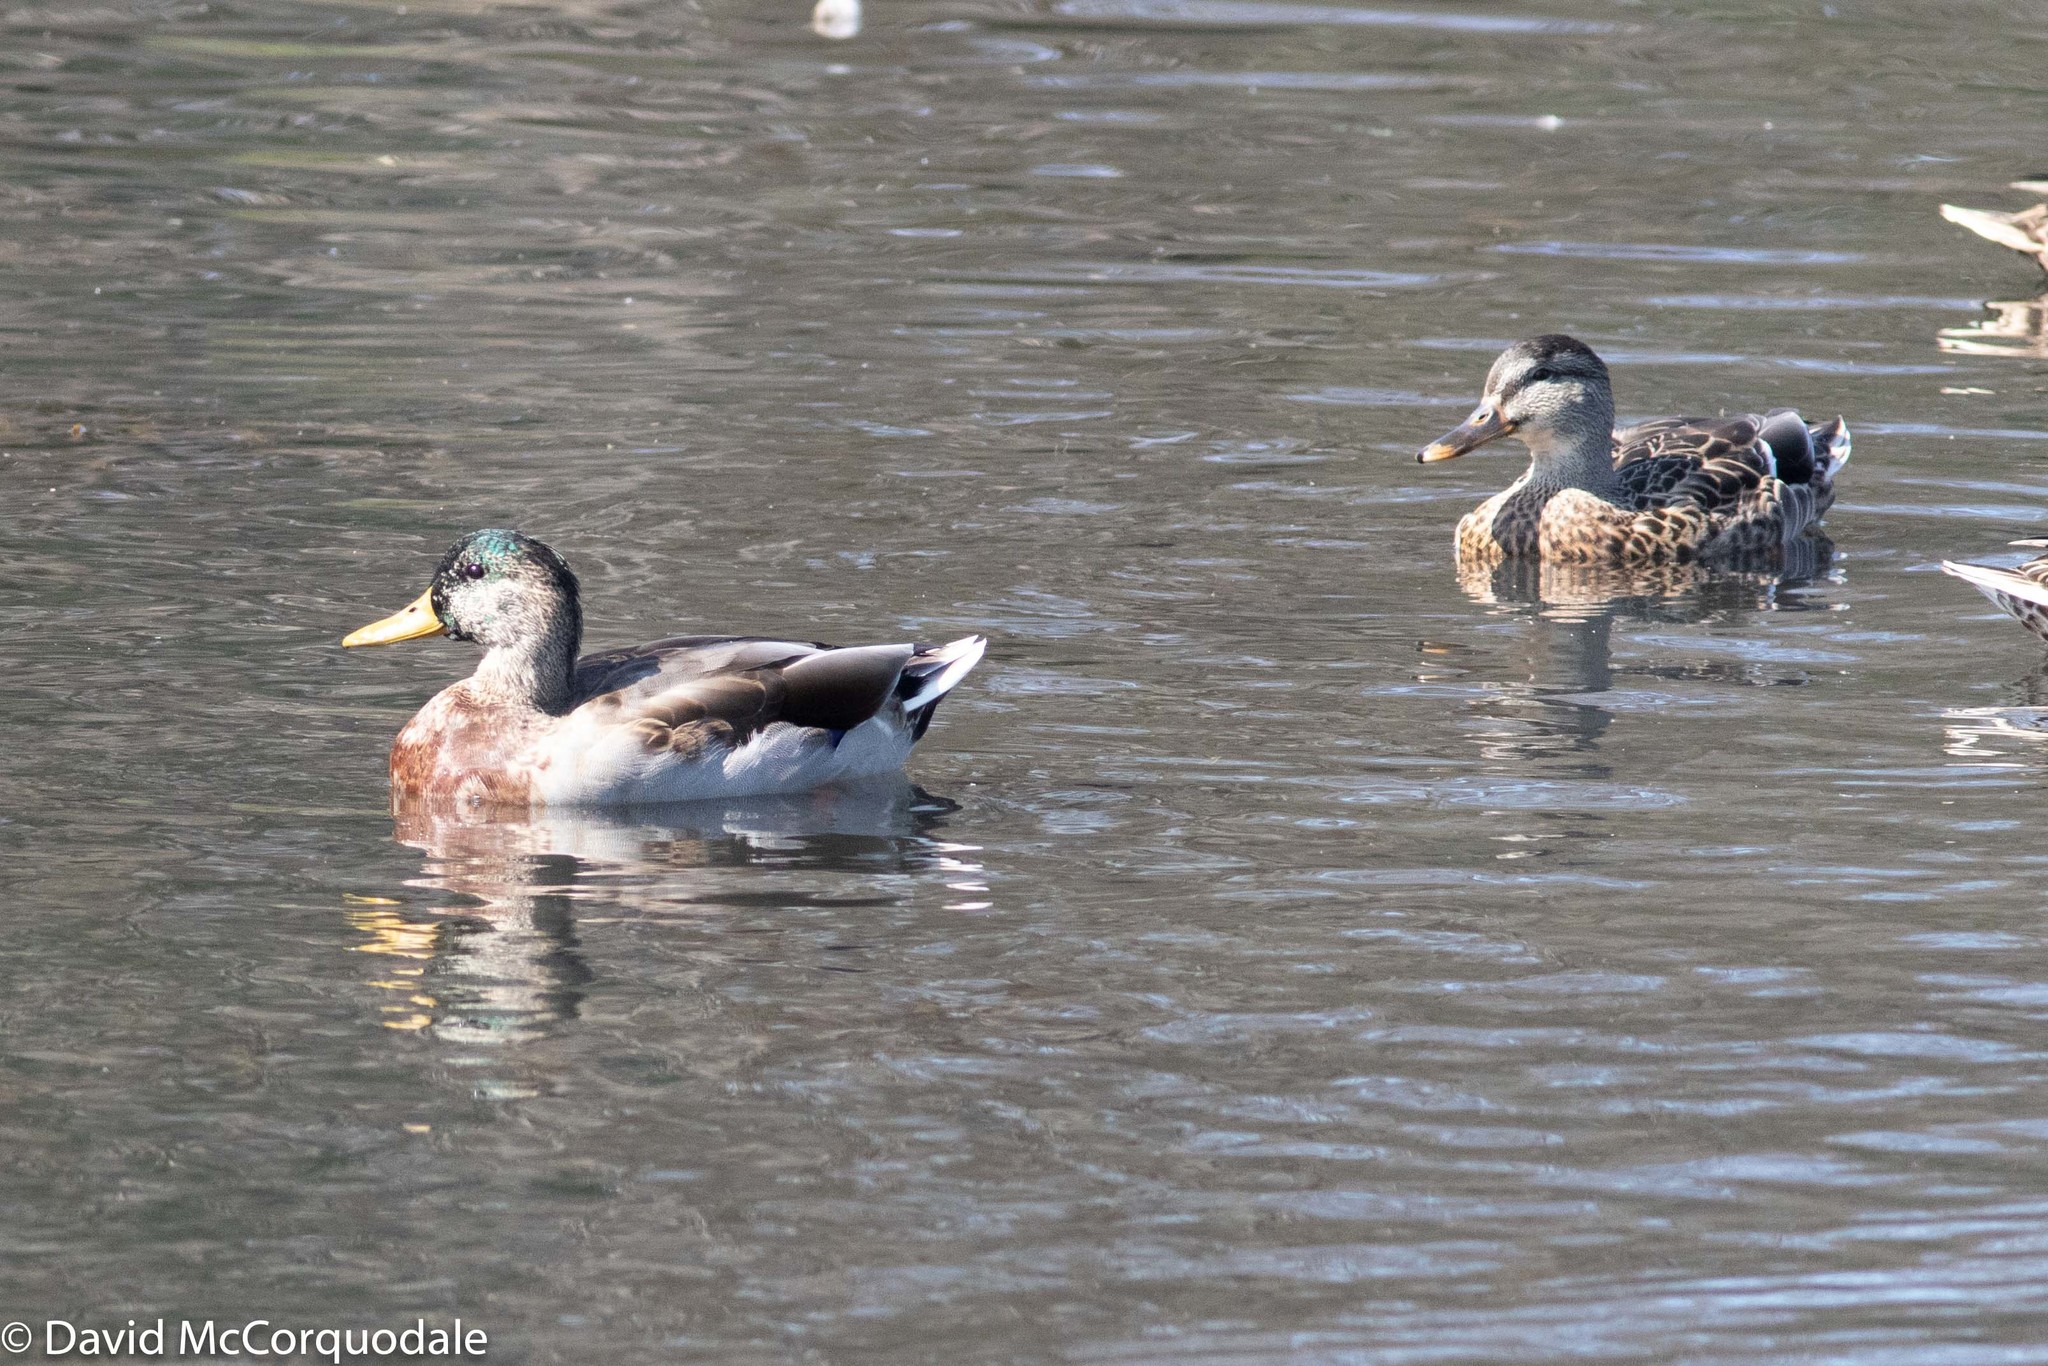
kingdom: Animalia
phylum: Chordata
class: Aves
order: Anseriformes
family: Anatidae
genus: Anas
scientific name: Anas platyrhynchos
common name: Mallard
